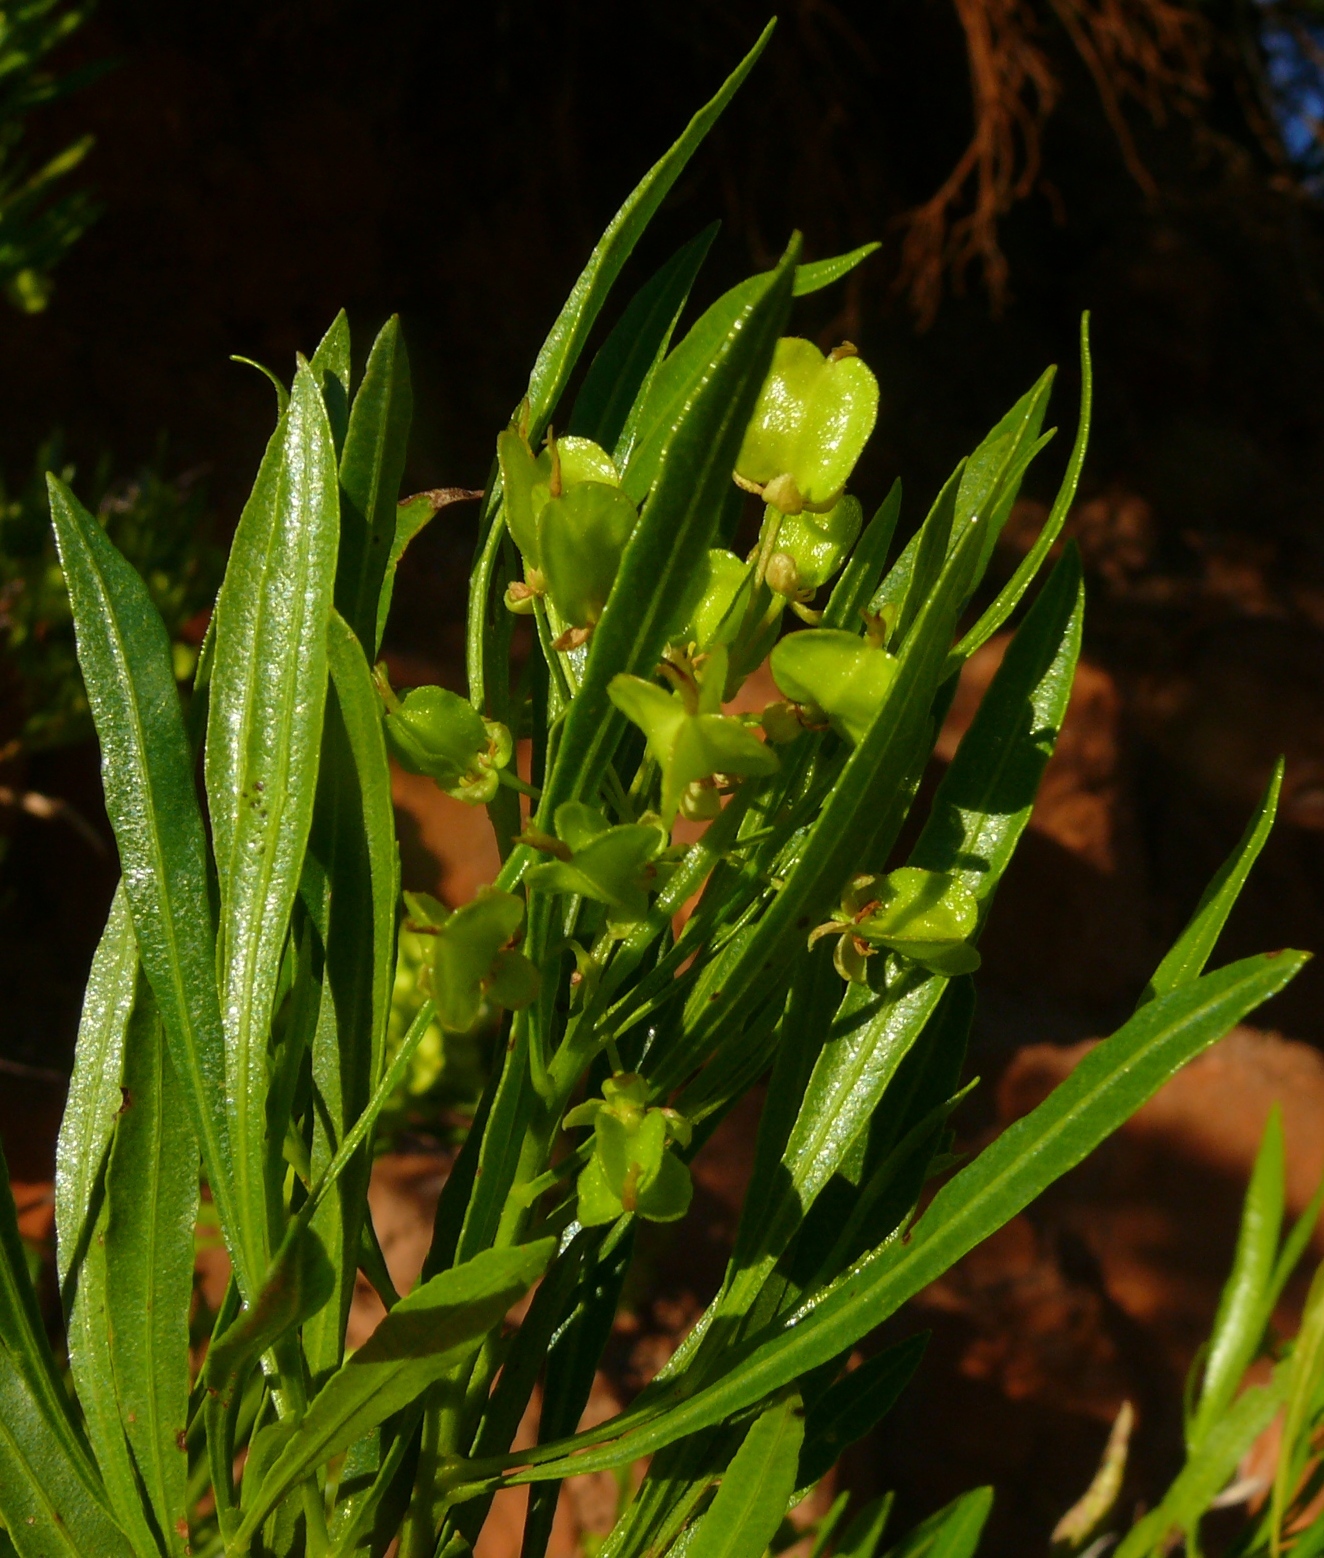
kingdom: Plantae
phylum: Tracheophyta
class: Magnoliopsida
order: Sapindales
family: Sapindaceae
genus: Dodonaea
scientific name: Dodonaea viscosa
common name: Hopbush
